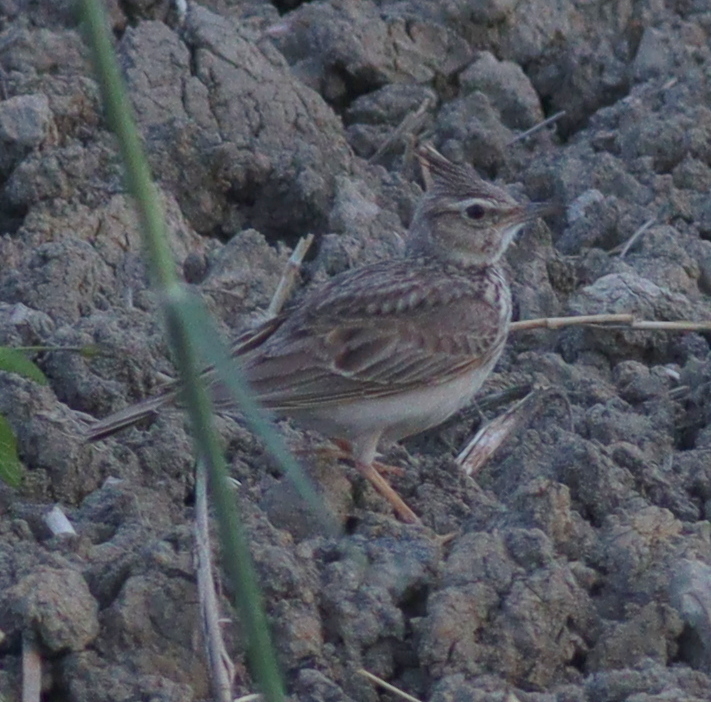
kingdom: Animalia
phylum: Chordata
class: Aves
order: Passeriformes
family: Alaudidae
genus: Galerida
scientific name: Galerida cristata
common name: Crested lark
